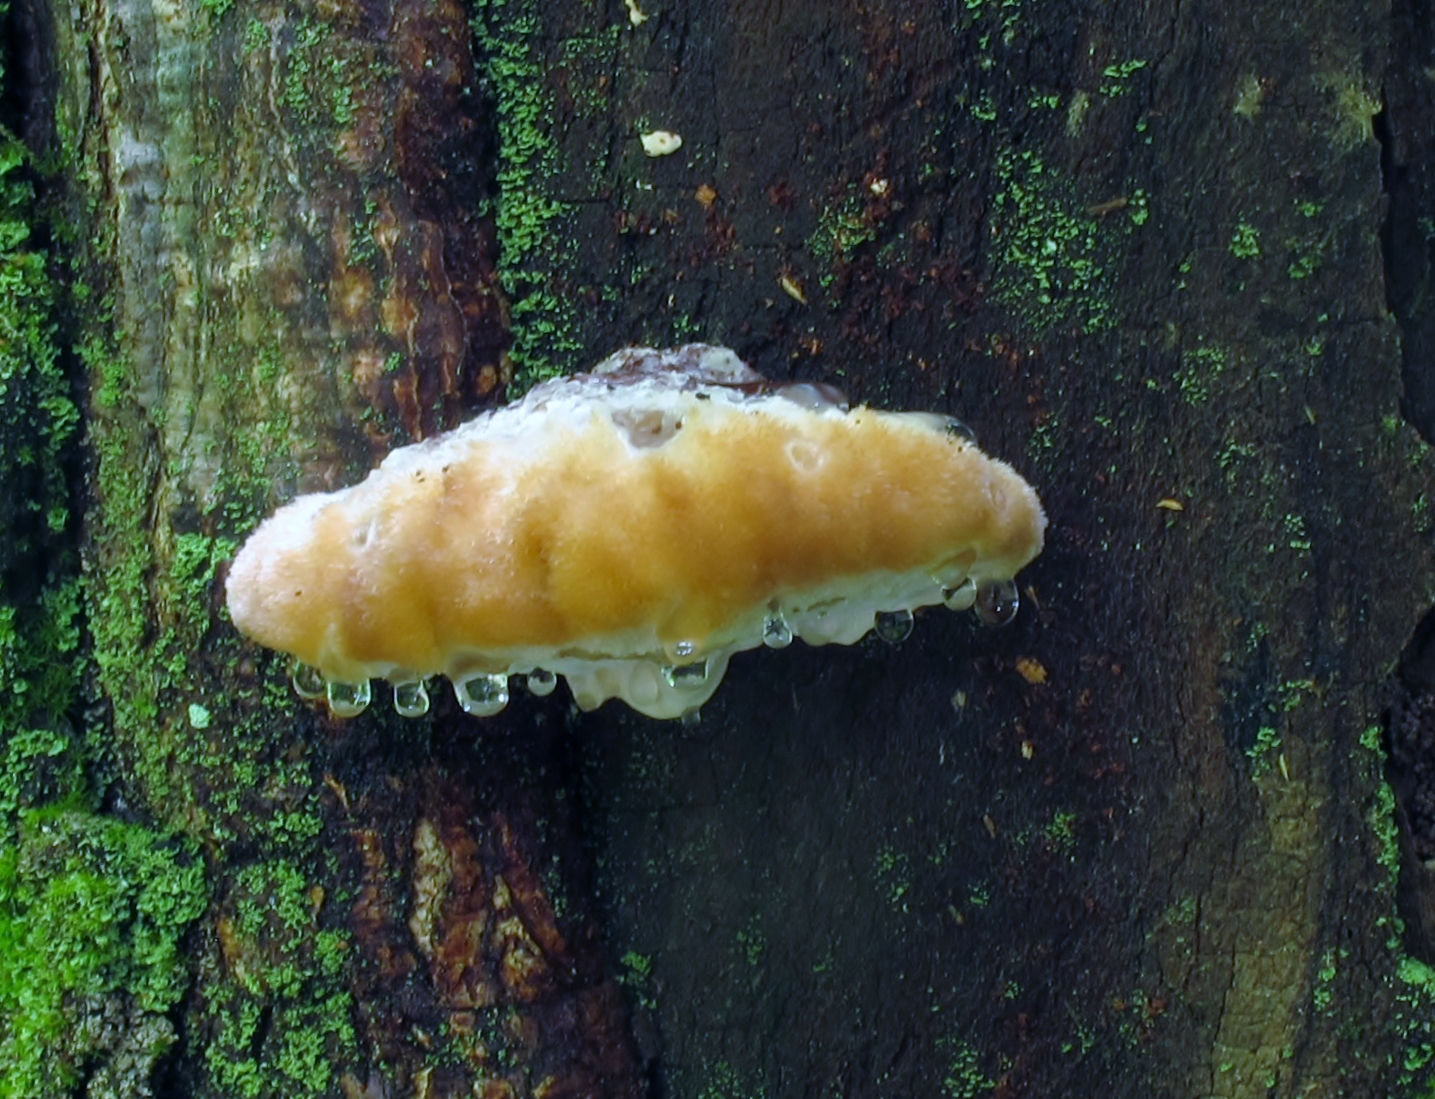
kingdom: Fungi
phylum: Basidiomycota
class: Agaricomycetes
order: Polyporales
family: Fomitopsidaceae
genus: Niveoporofomes
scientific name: Niveoporofomes spraguei
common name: Green cheese polypore
